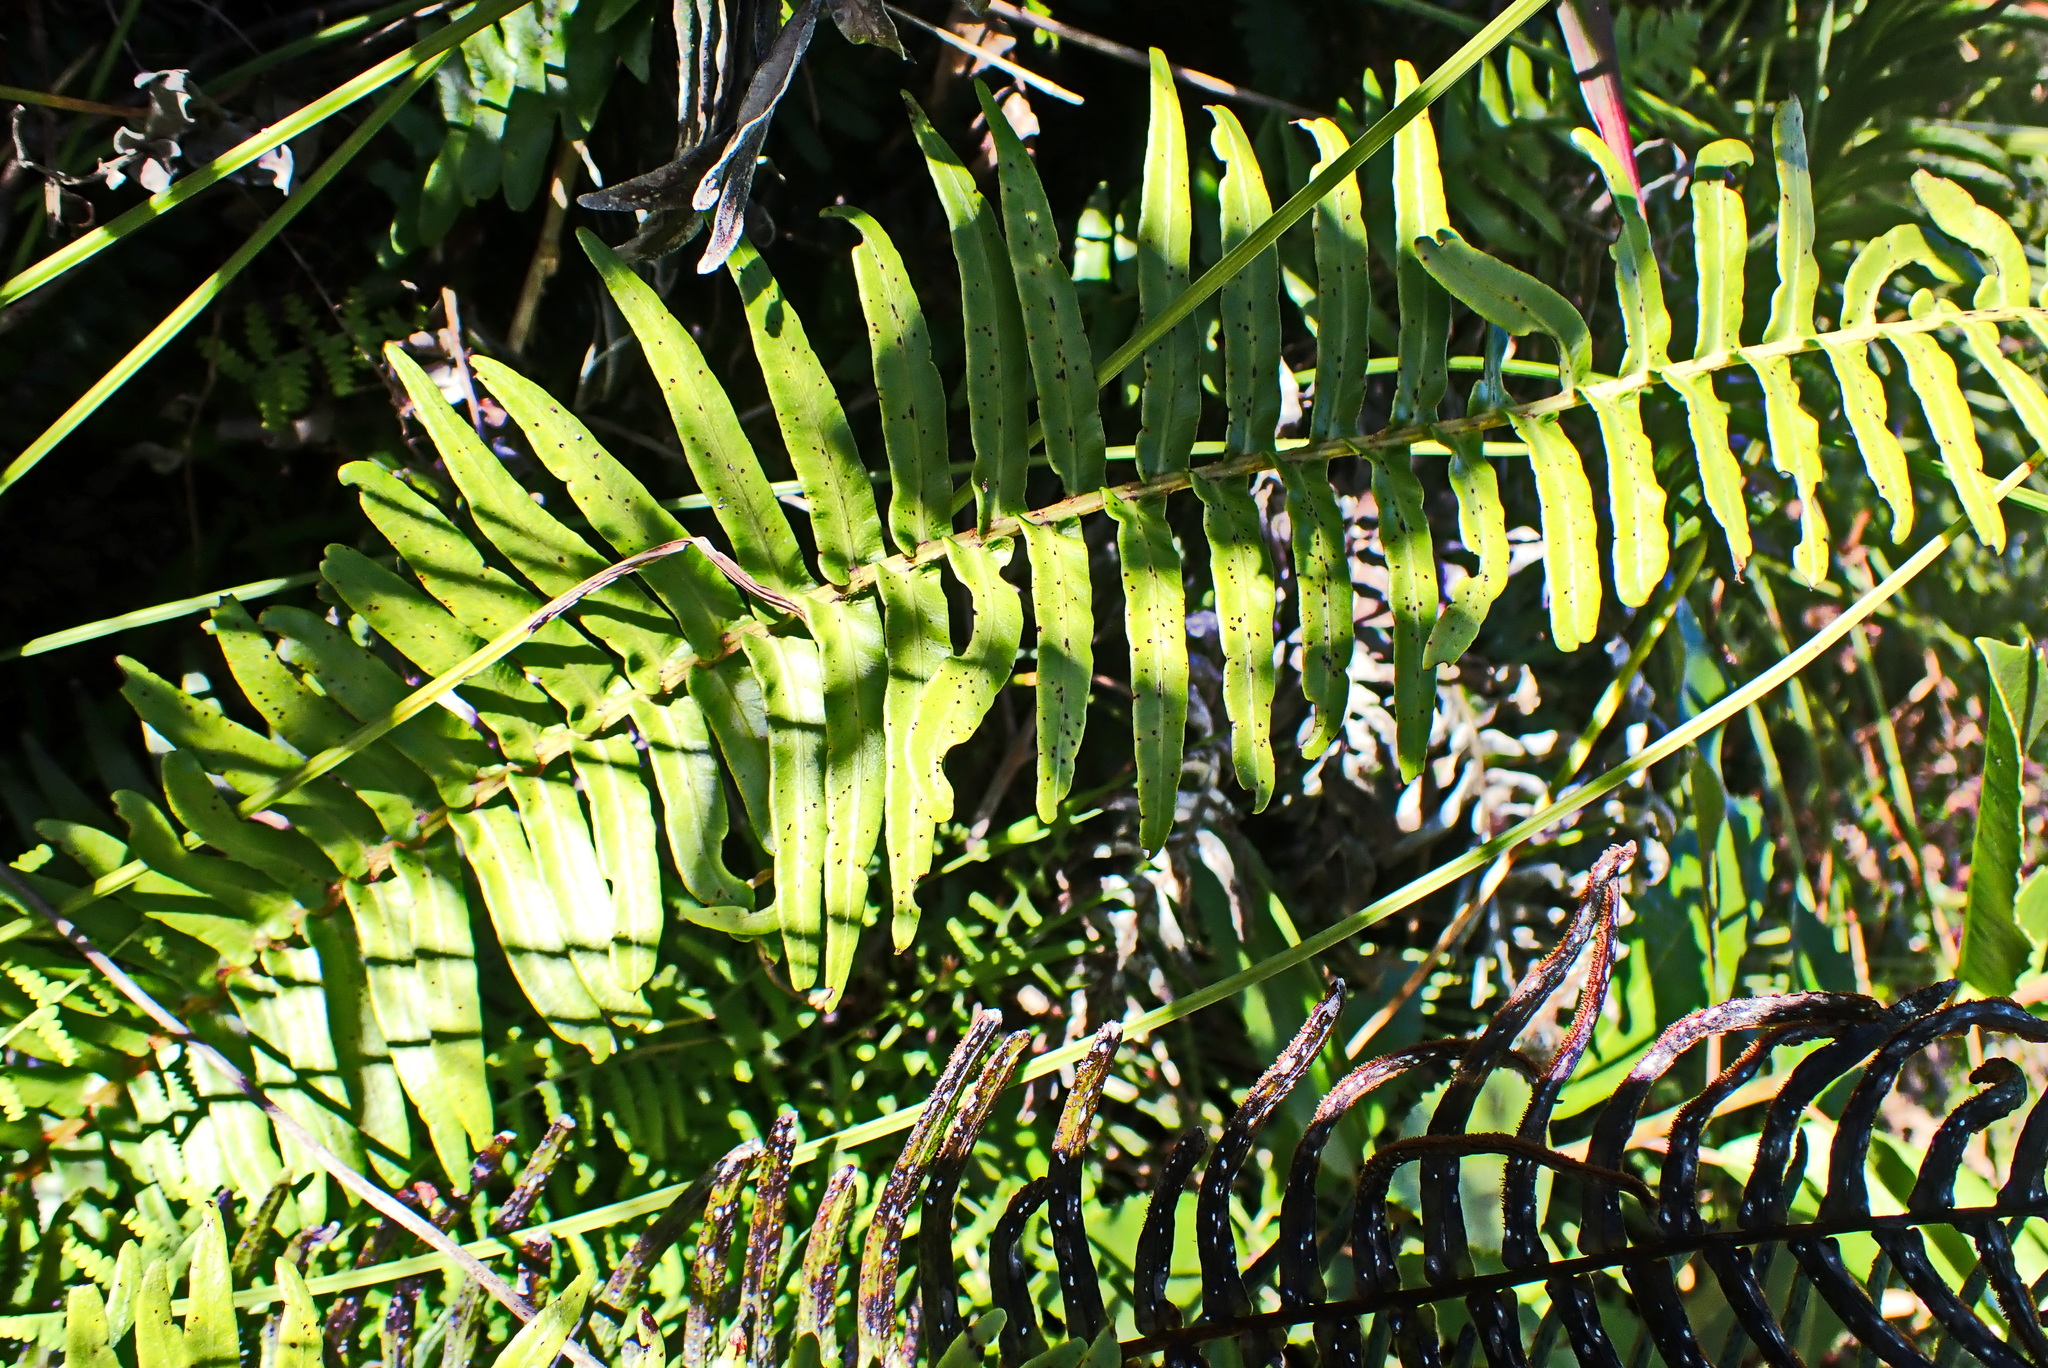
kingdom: Plantae
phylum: Tracheophyta
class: Polypodiopsida
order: Polypodiales
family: Blechnaceae
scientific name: Blechnaceae
